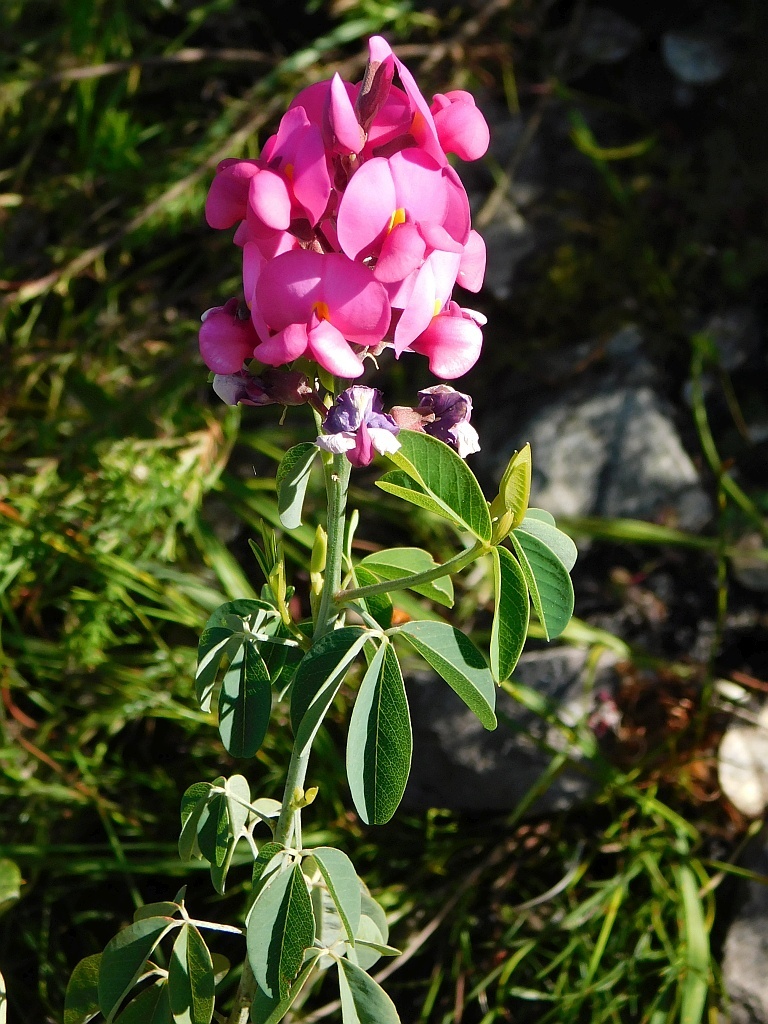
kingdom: Plantae
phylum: Tracheophyta
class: Magnoliopsida
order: Fabales
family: Fabaceae
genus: Hypocalyptus
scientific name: Hypocalyptus coluteoides
